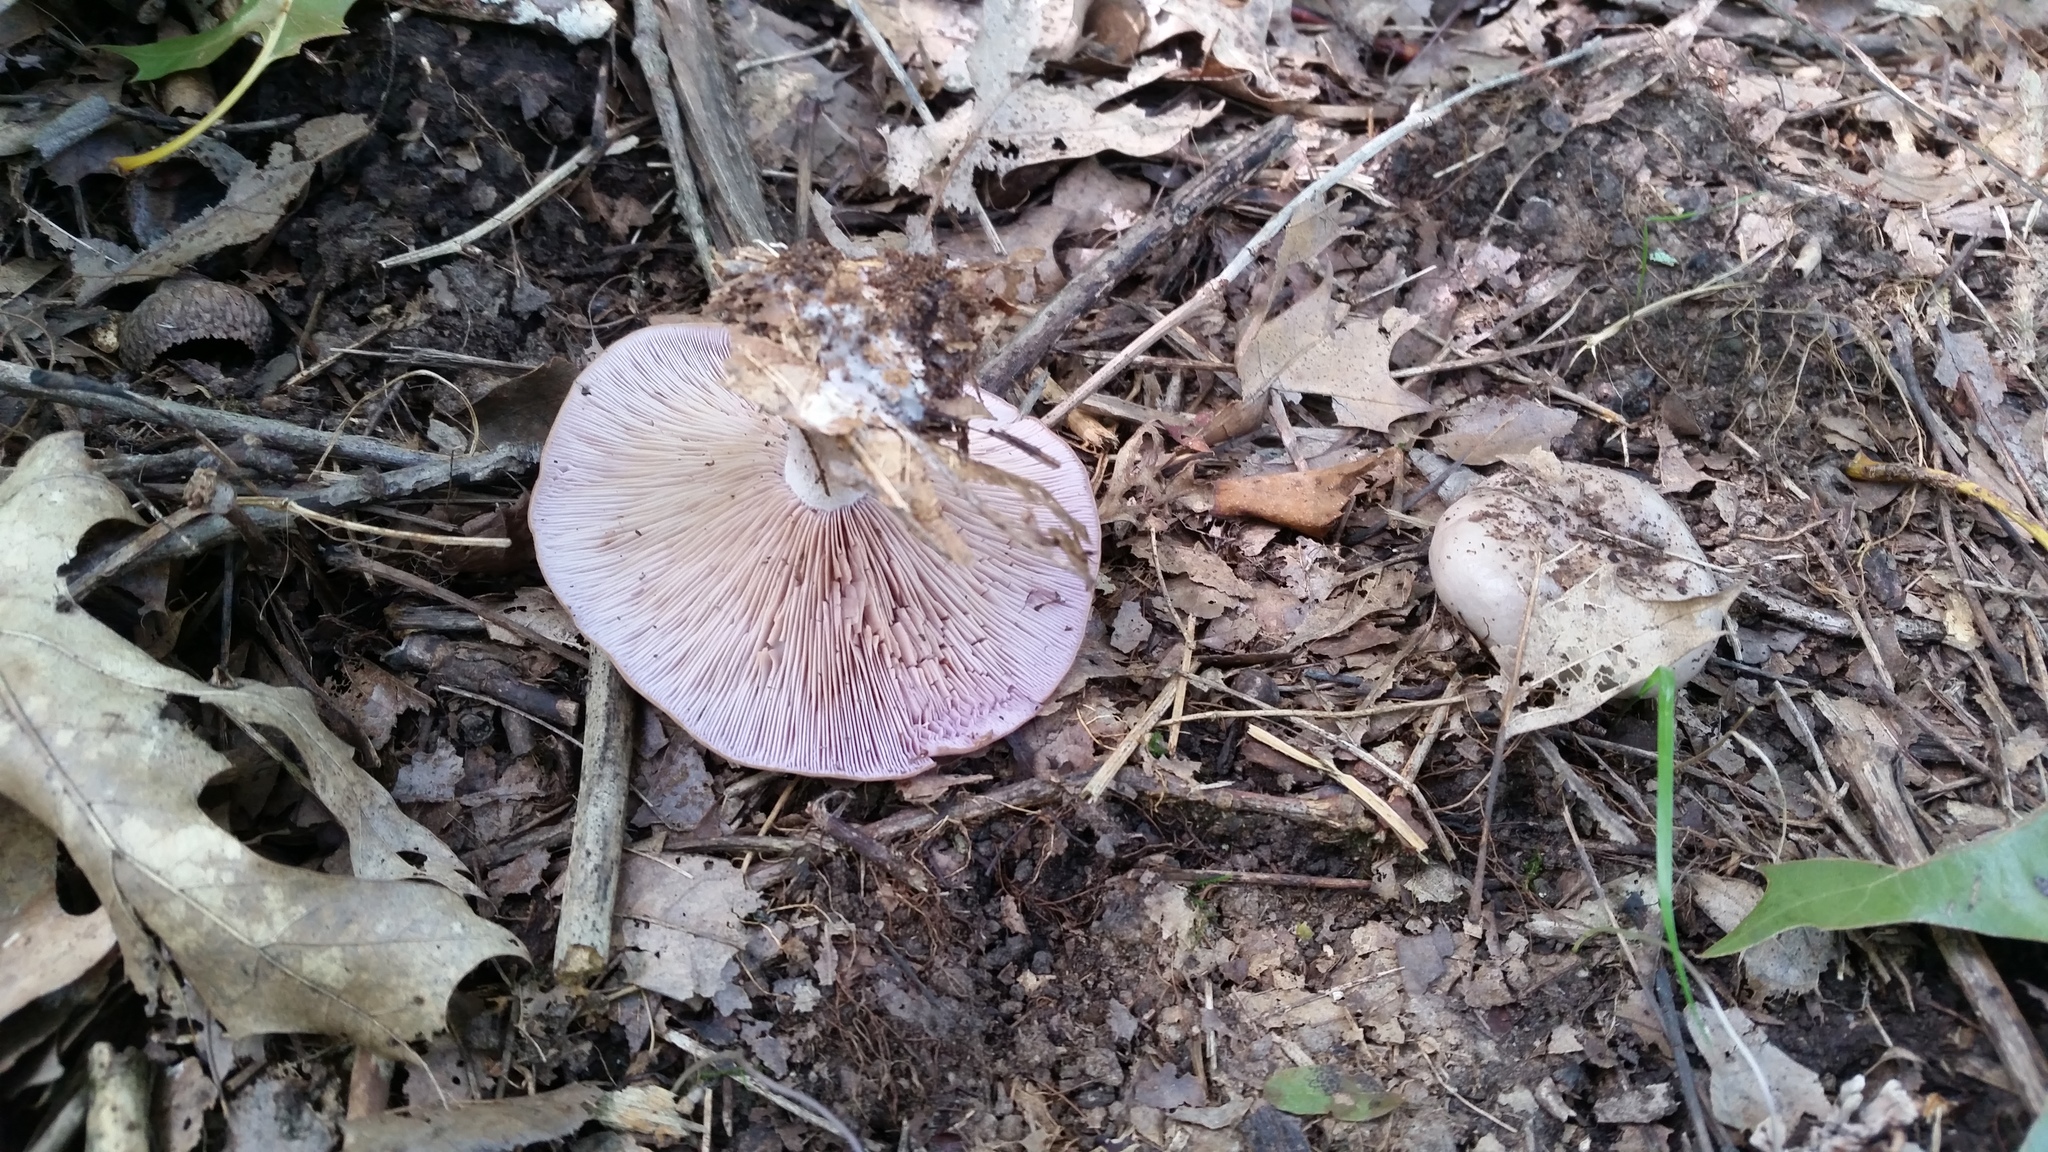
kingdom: Fungi
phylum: Basidiomycota
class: Agaricomycetes
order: Agaricales
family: Tricholomataceae
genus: Collybia
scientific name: Collybia
